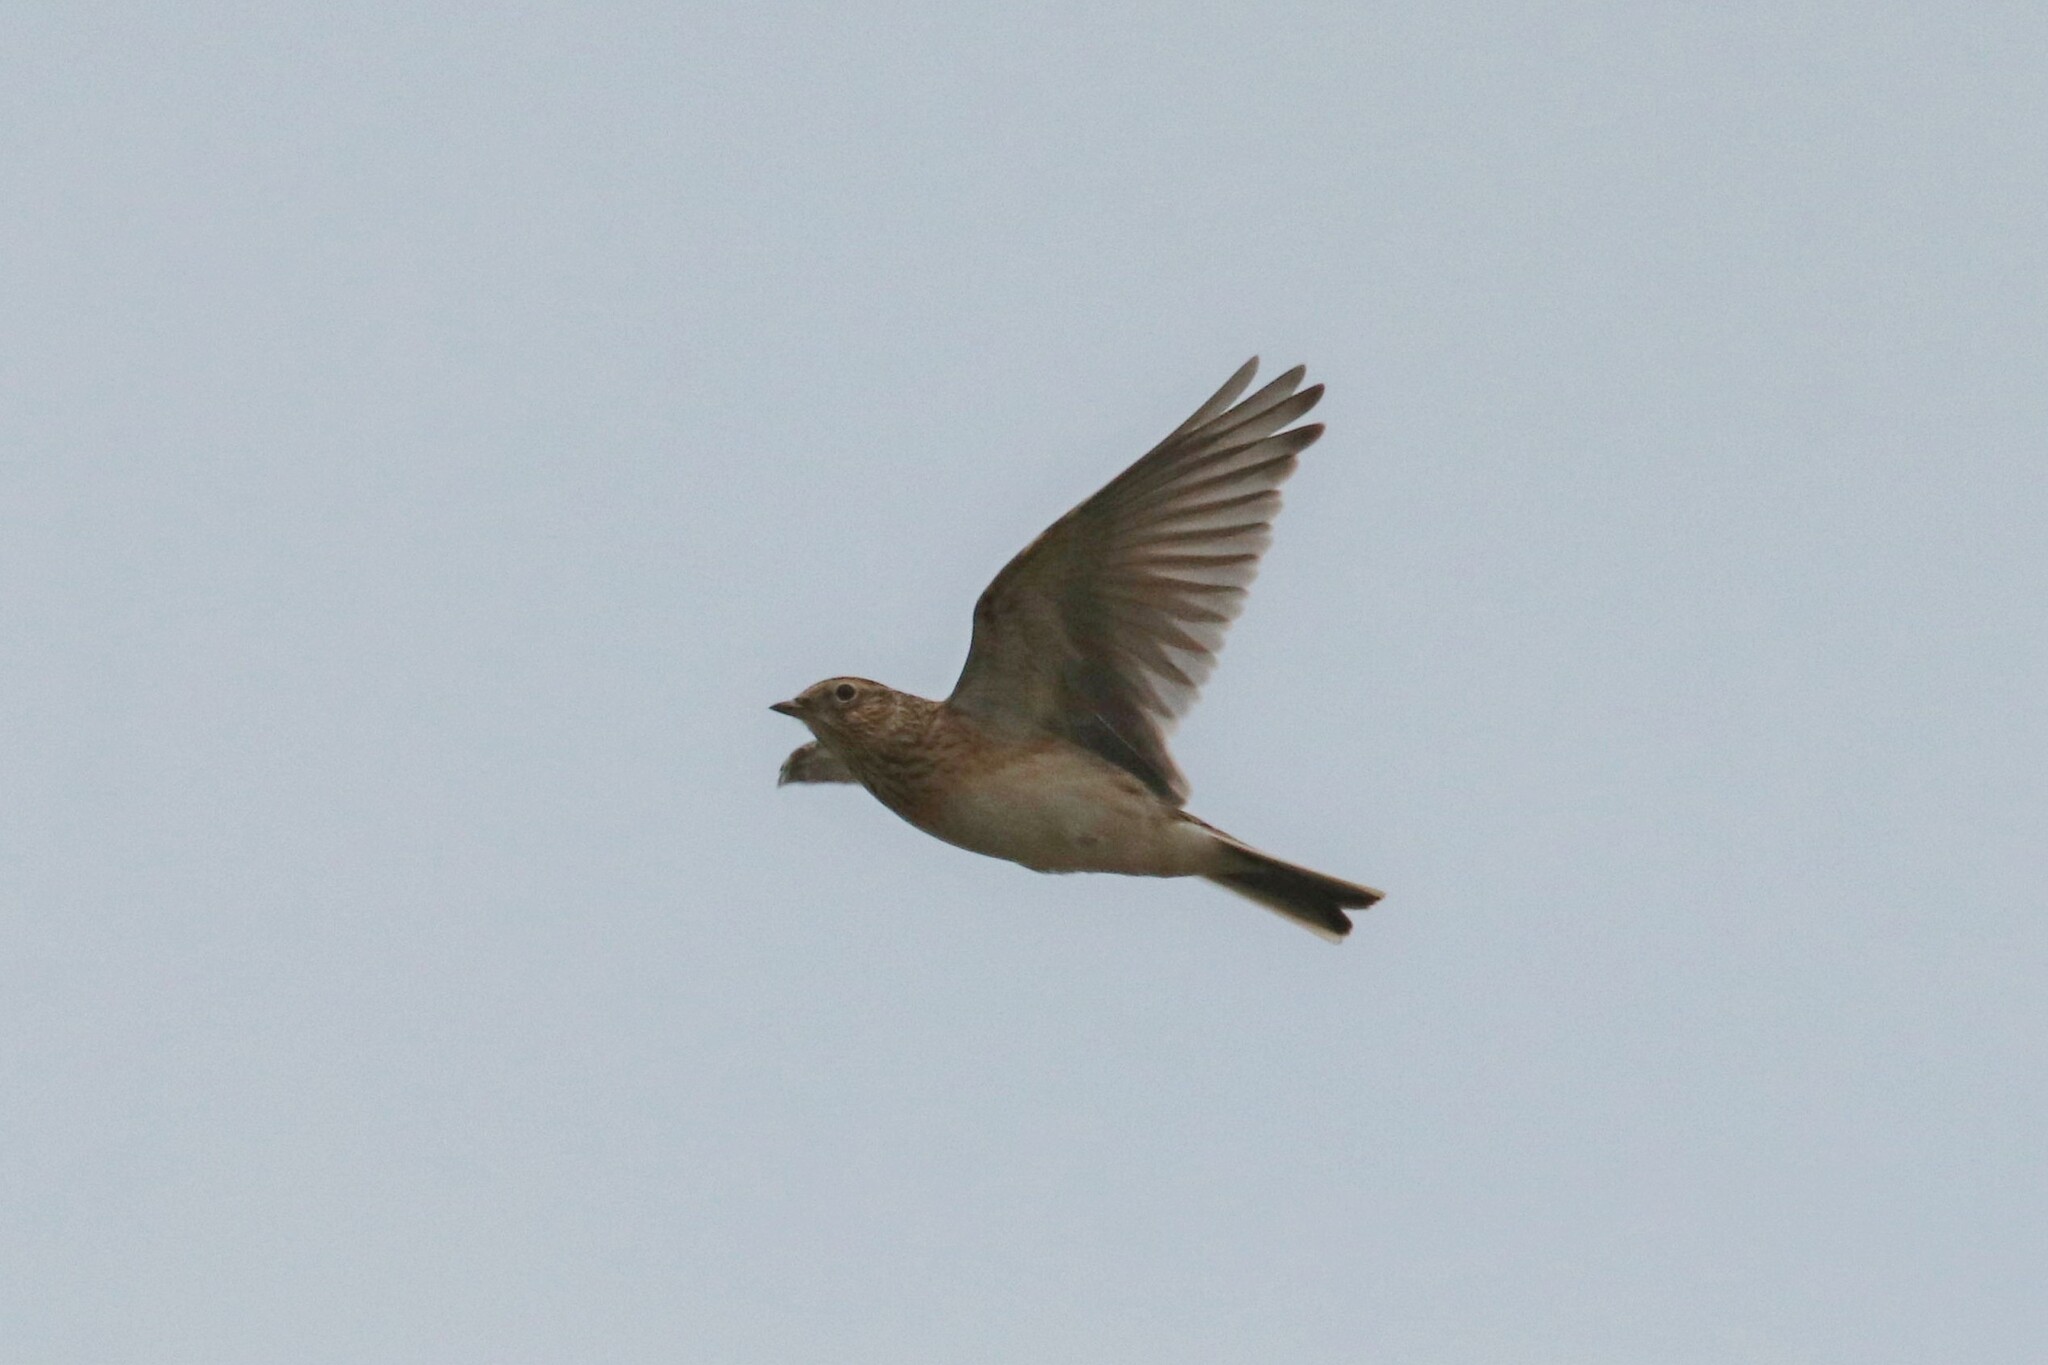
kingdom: Animalia
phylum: Chordata
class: Aves
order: Passeriformes
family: Alaudidae
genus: Alauda
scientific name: Alauda arvensis
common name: Eurasian skylark
